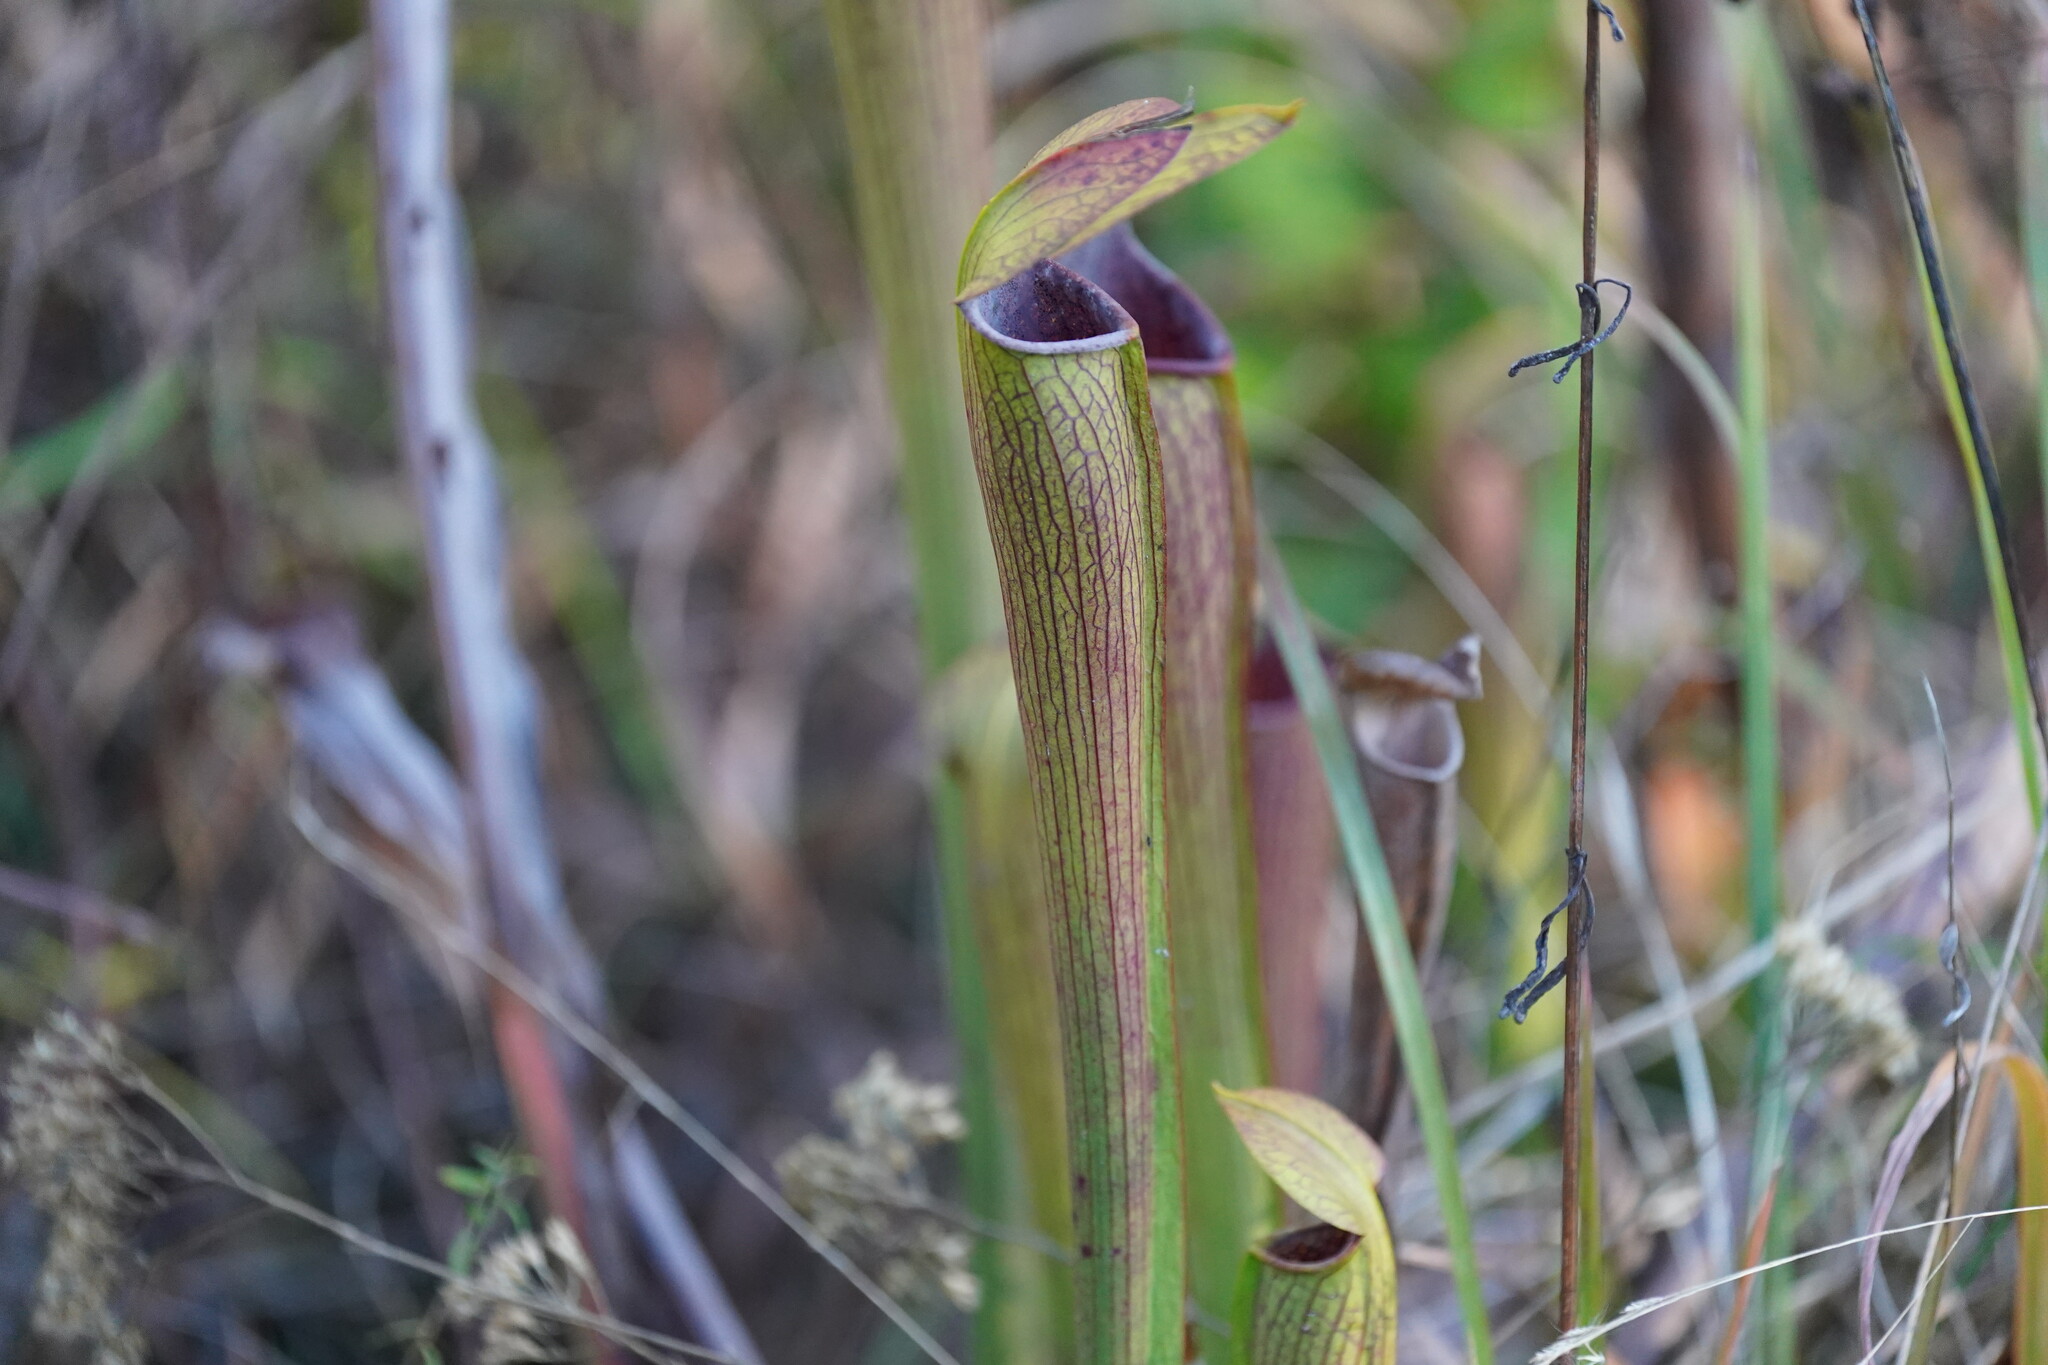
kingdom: Plantae
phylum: Tracheophyta
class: Magnoliopsida
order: Ericales
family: Sarraceniaceae
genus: Sarracenia
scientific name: Sarracenia alata
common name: Yellow trumpets
